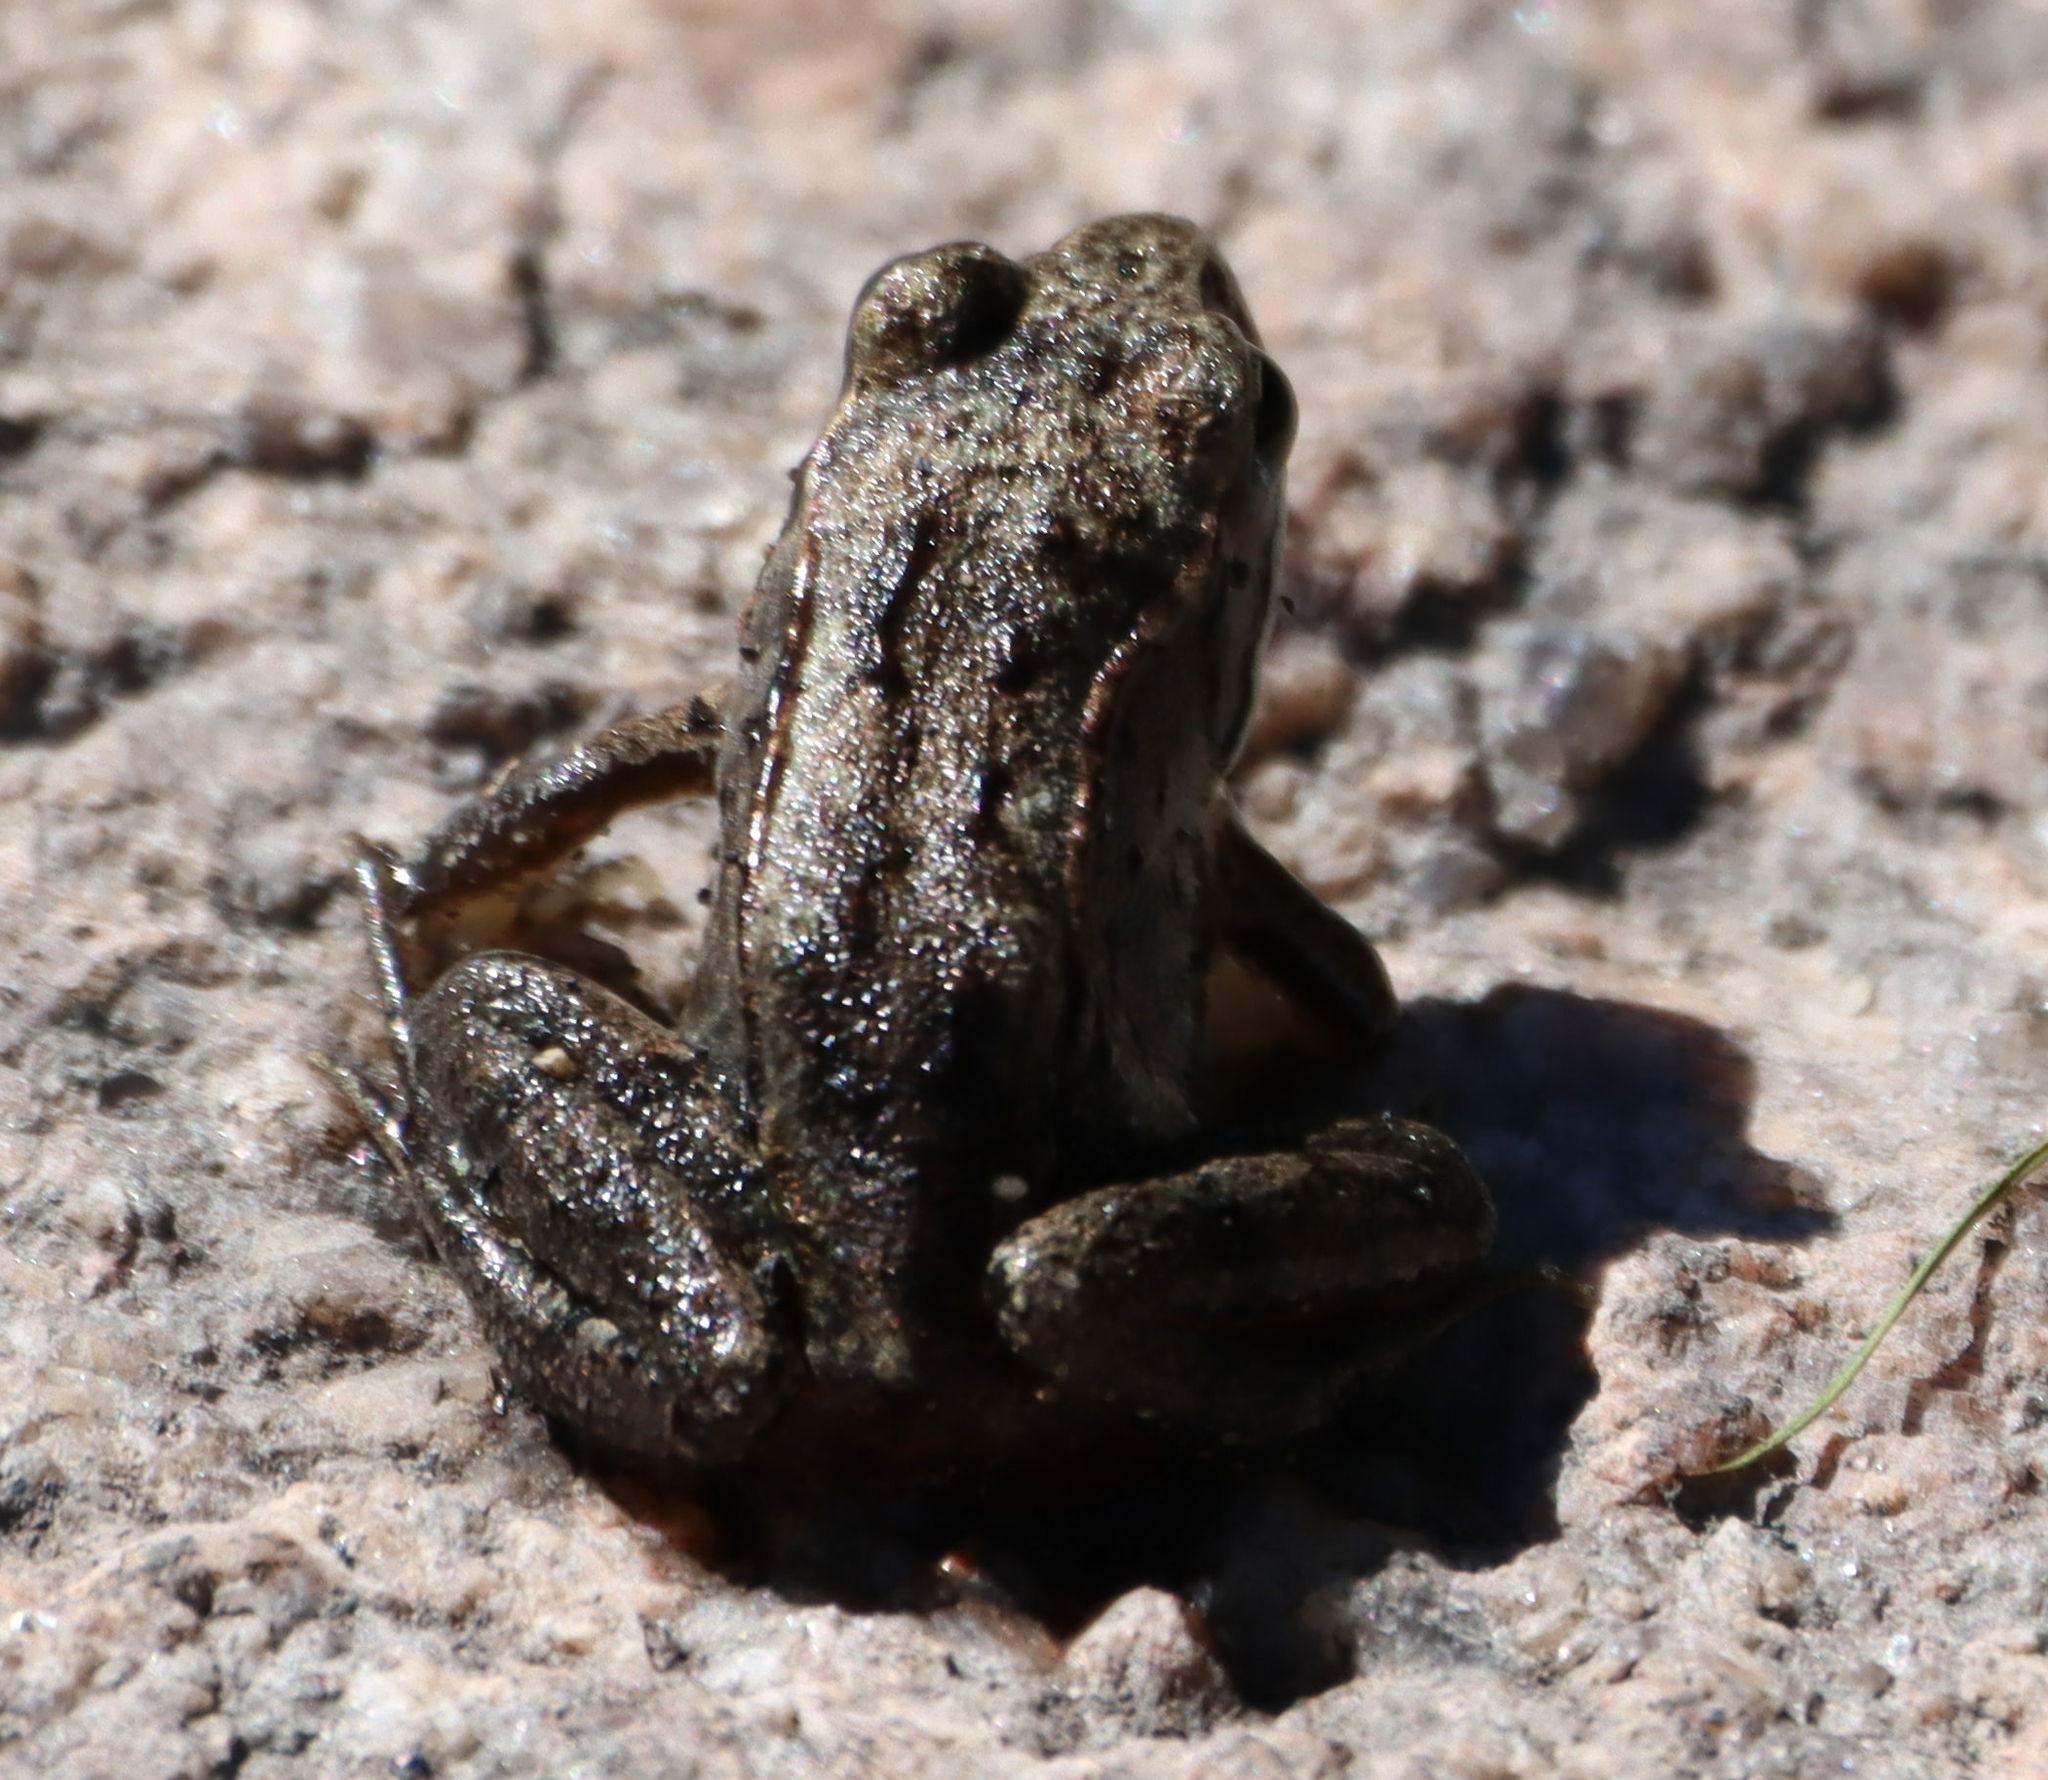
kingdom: Animalia
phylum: Chordata
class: Amphibia
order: Anura
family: Ranidae
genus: Lithobates
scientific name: Lithobates sylvaticus
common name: Wood frog
